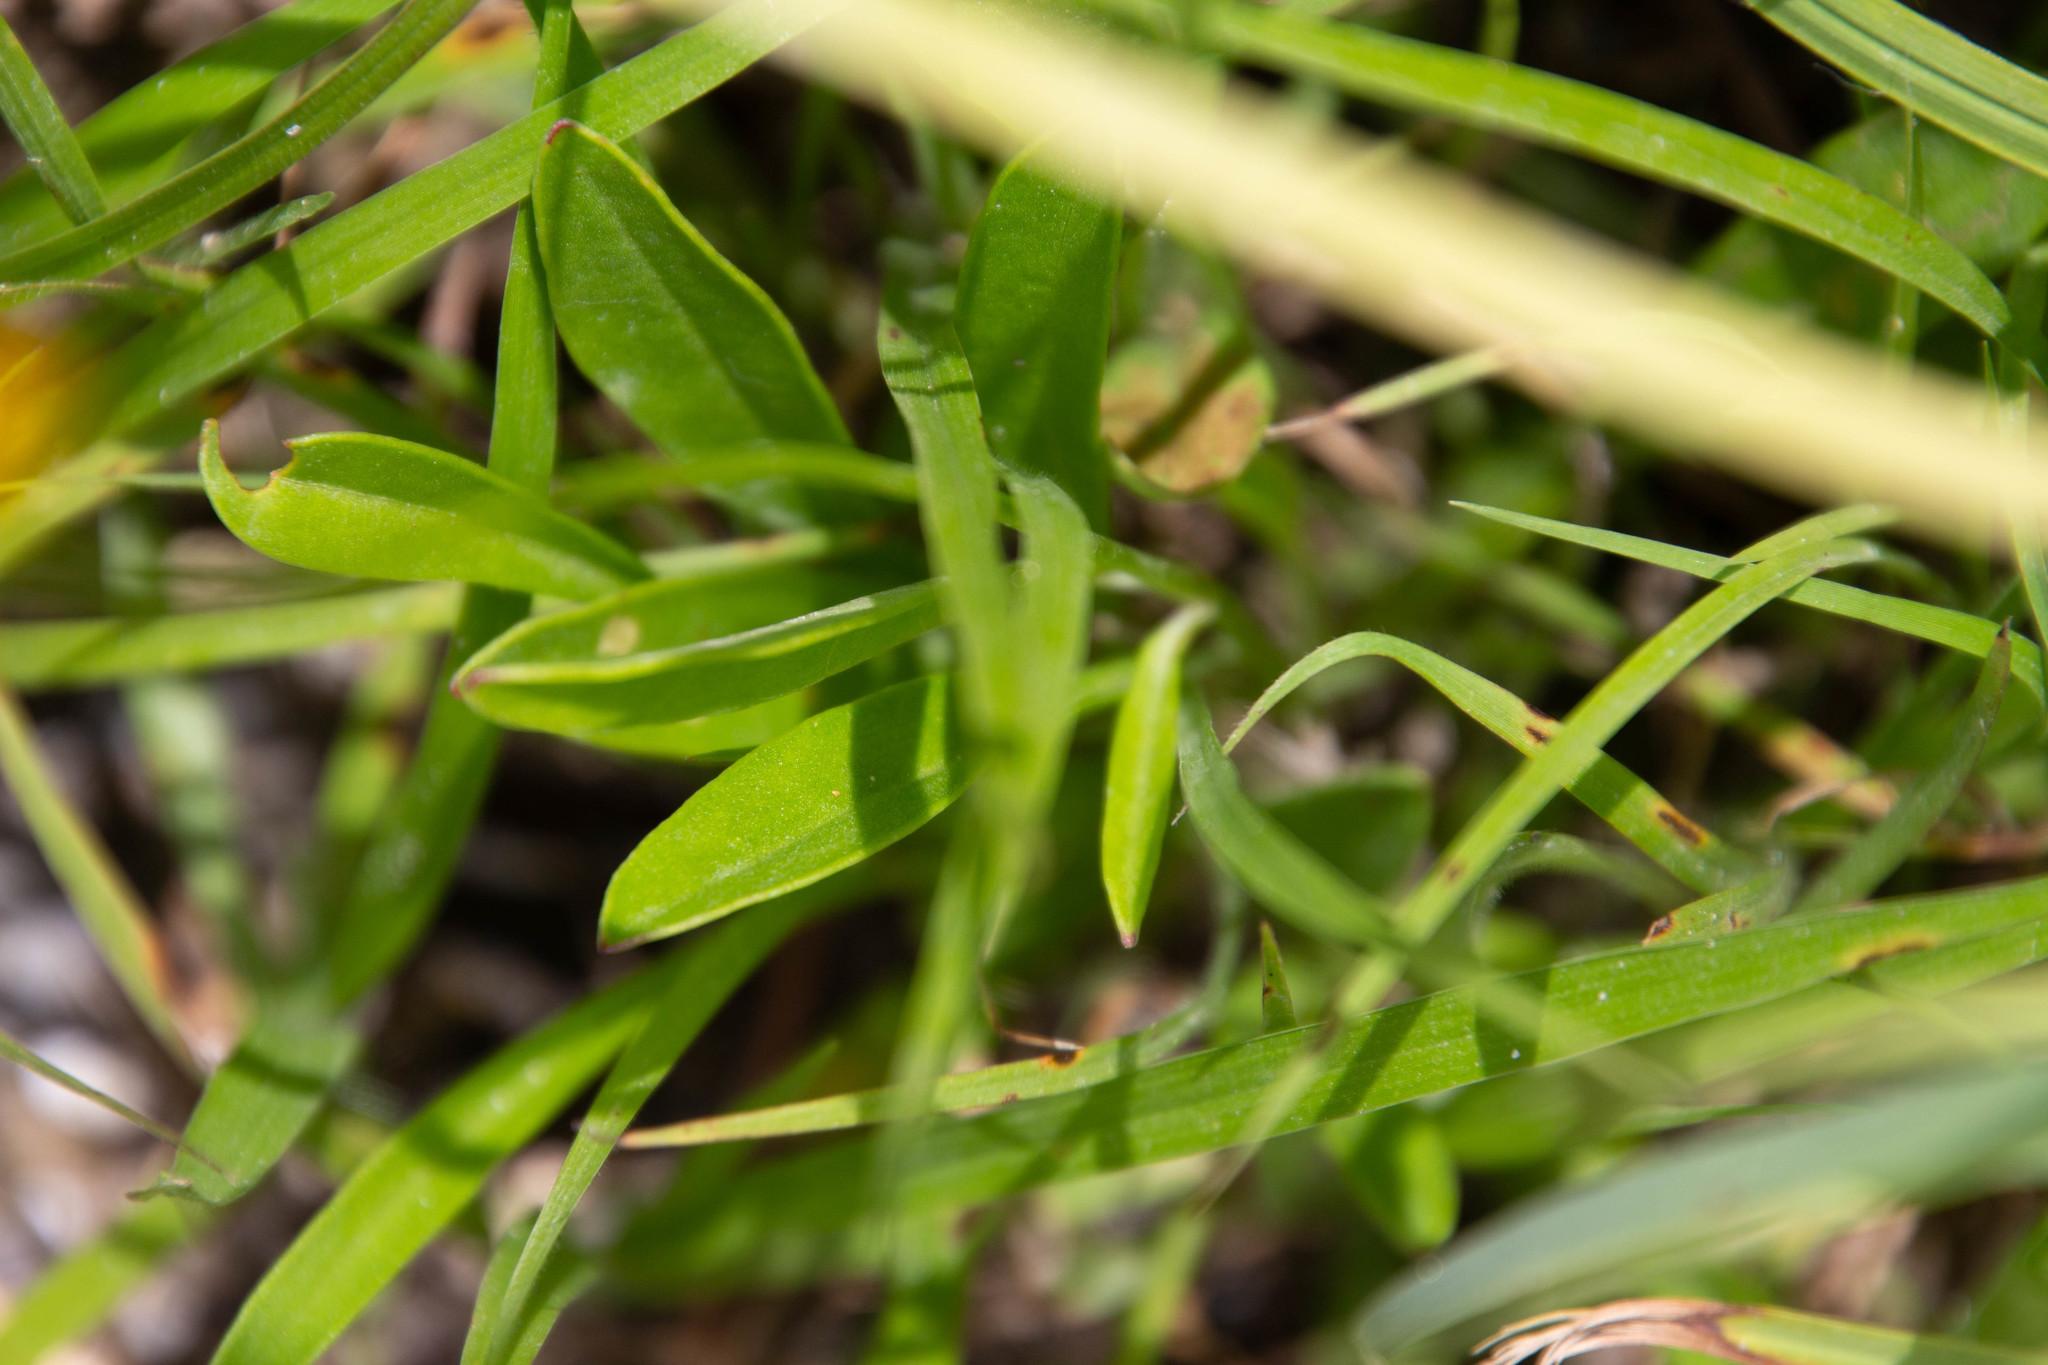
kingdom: Plantae
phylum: Tracheophyta
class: Magnoliopsida
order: Asterales
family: Asteraceae
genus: Coreopsis
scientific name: Coreopsis lanceolata
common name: Garden coreopsis
